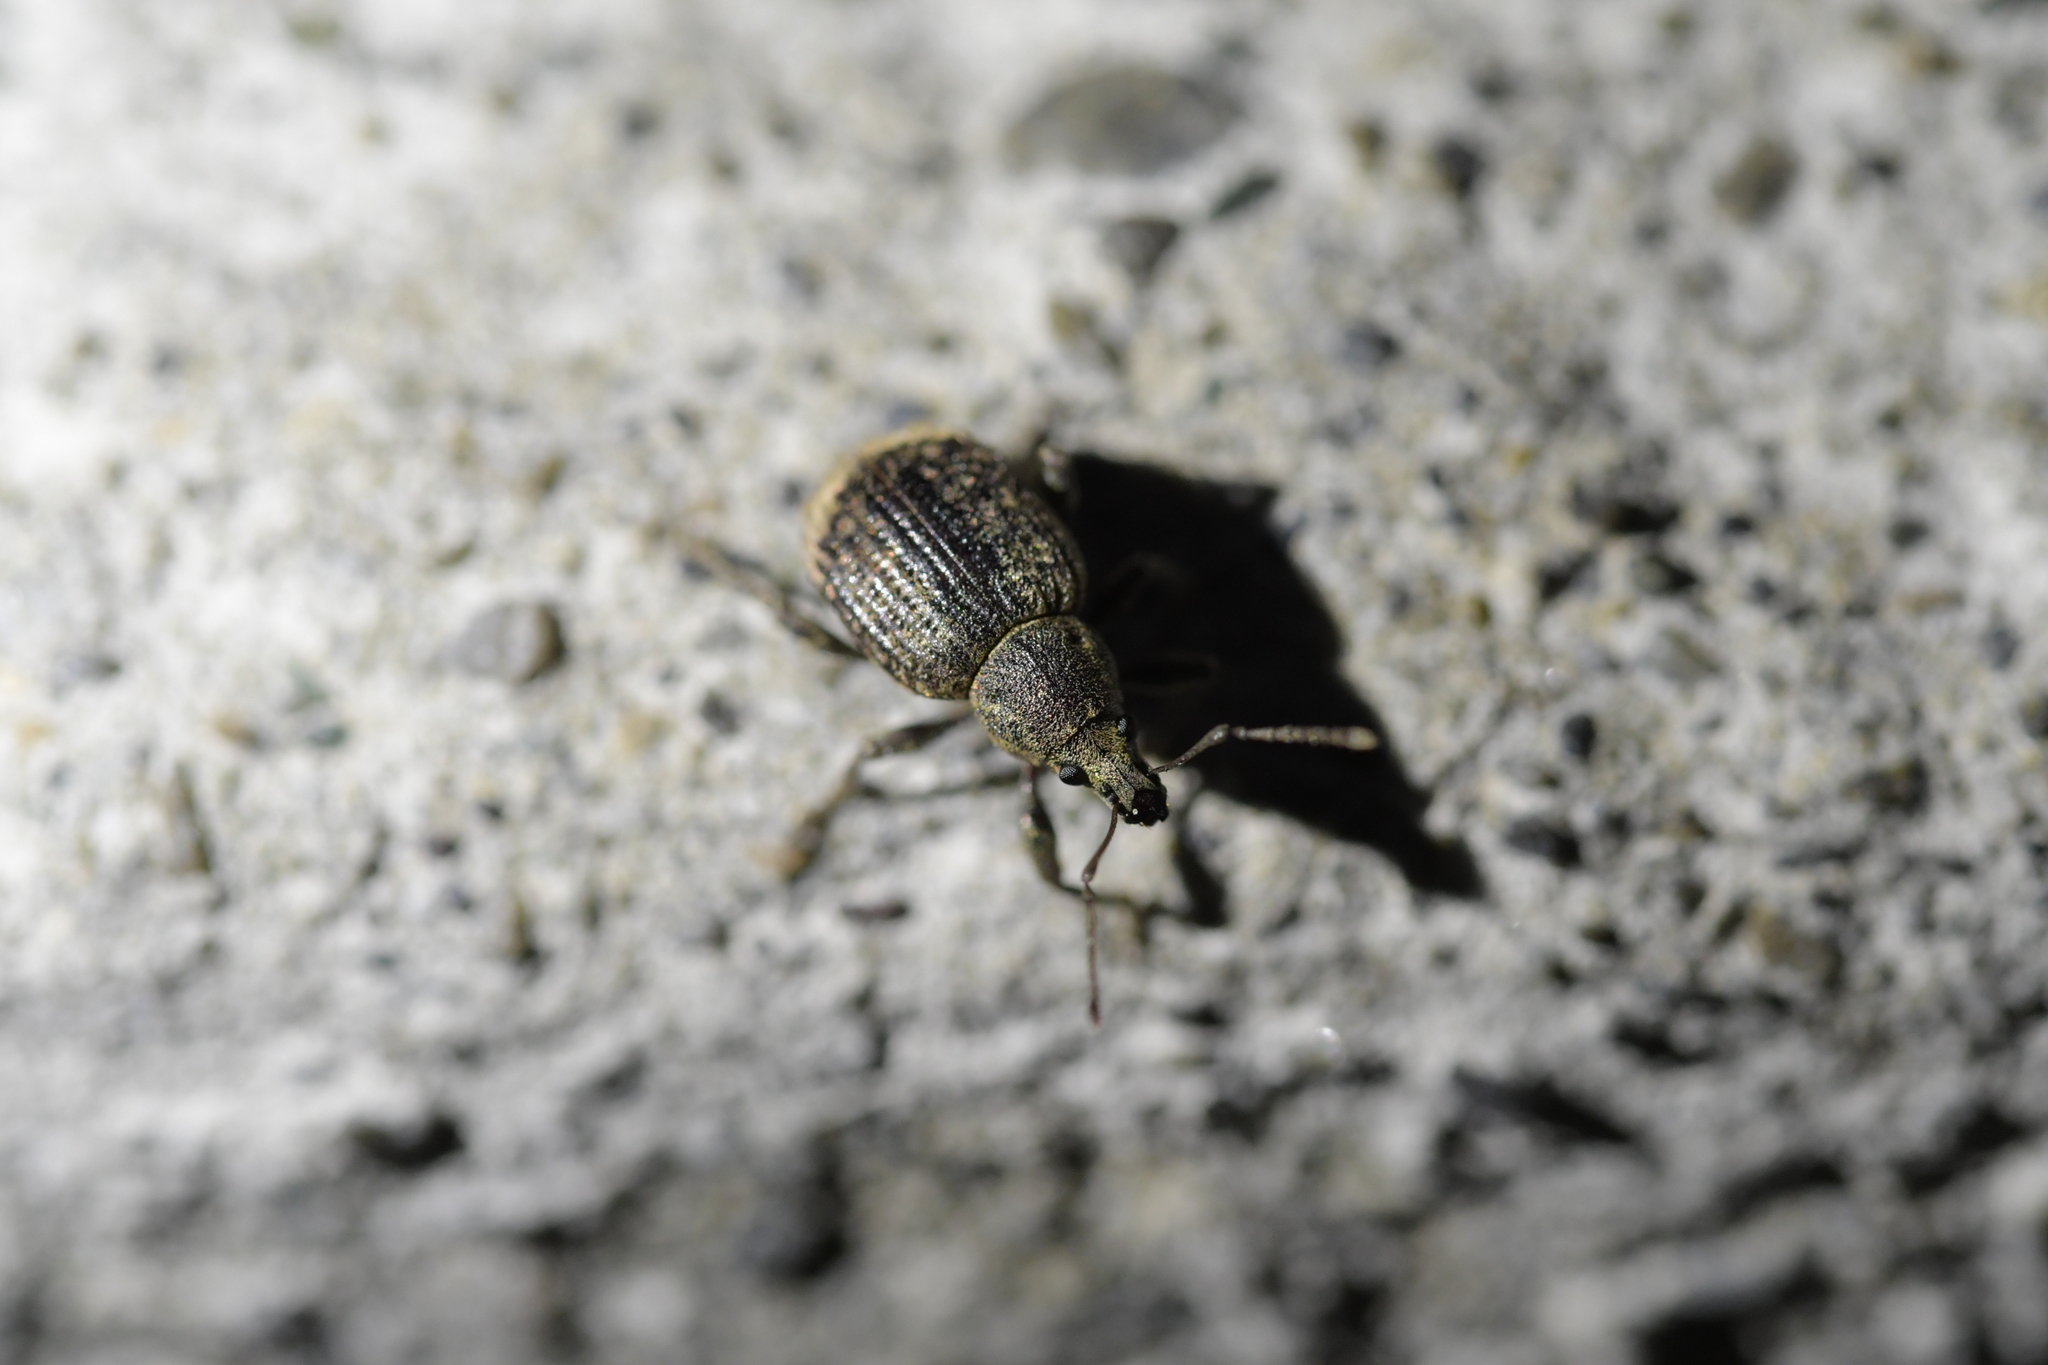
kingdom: Animalia
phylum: Arthropoda
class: Insecta
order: Coleoptera
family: Curculionidae
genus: Phlyctinus
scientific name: Phlyctinus callosus
